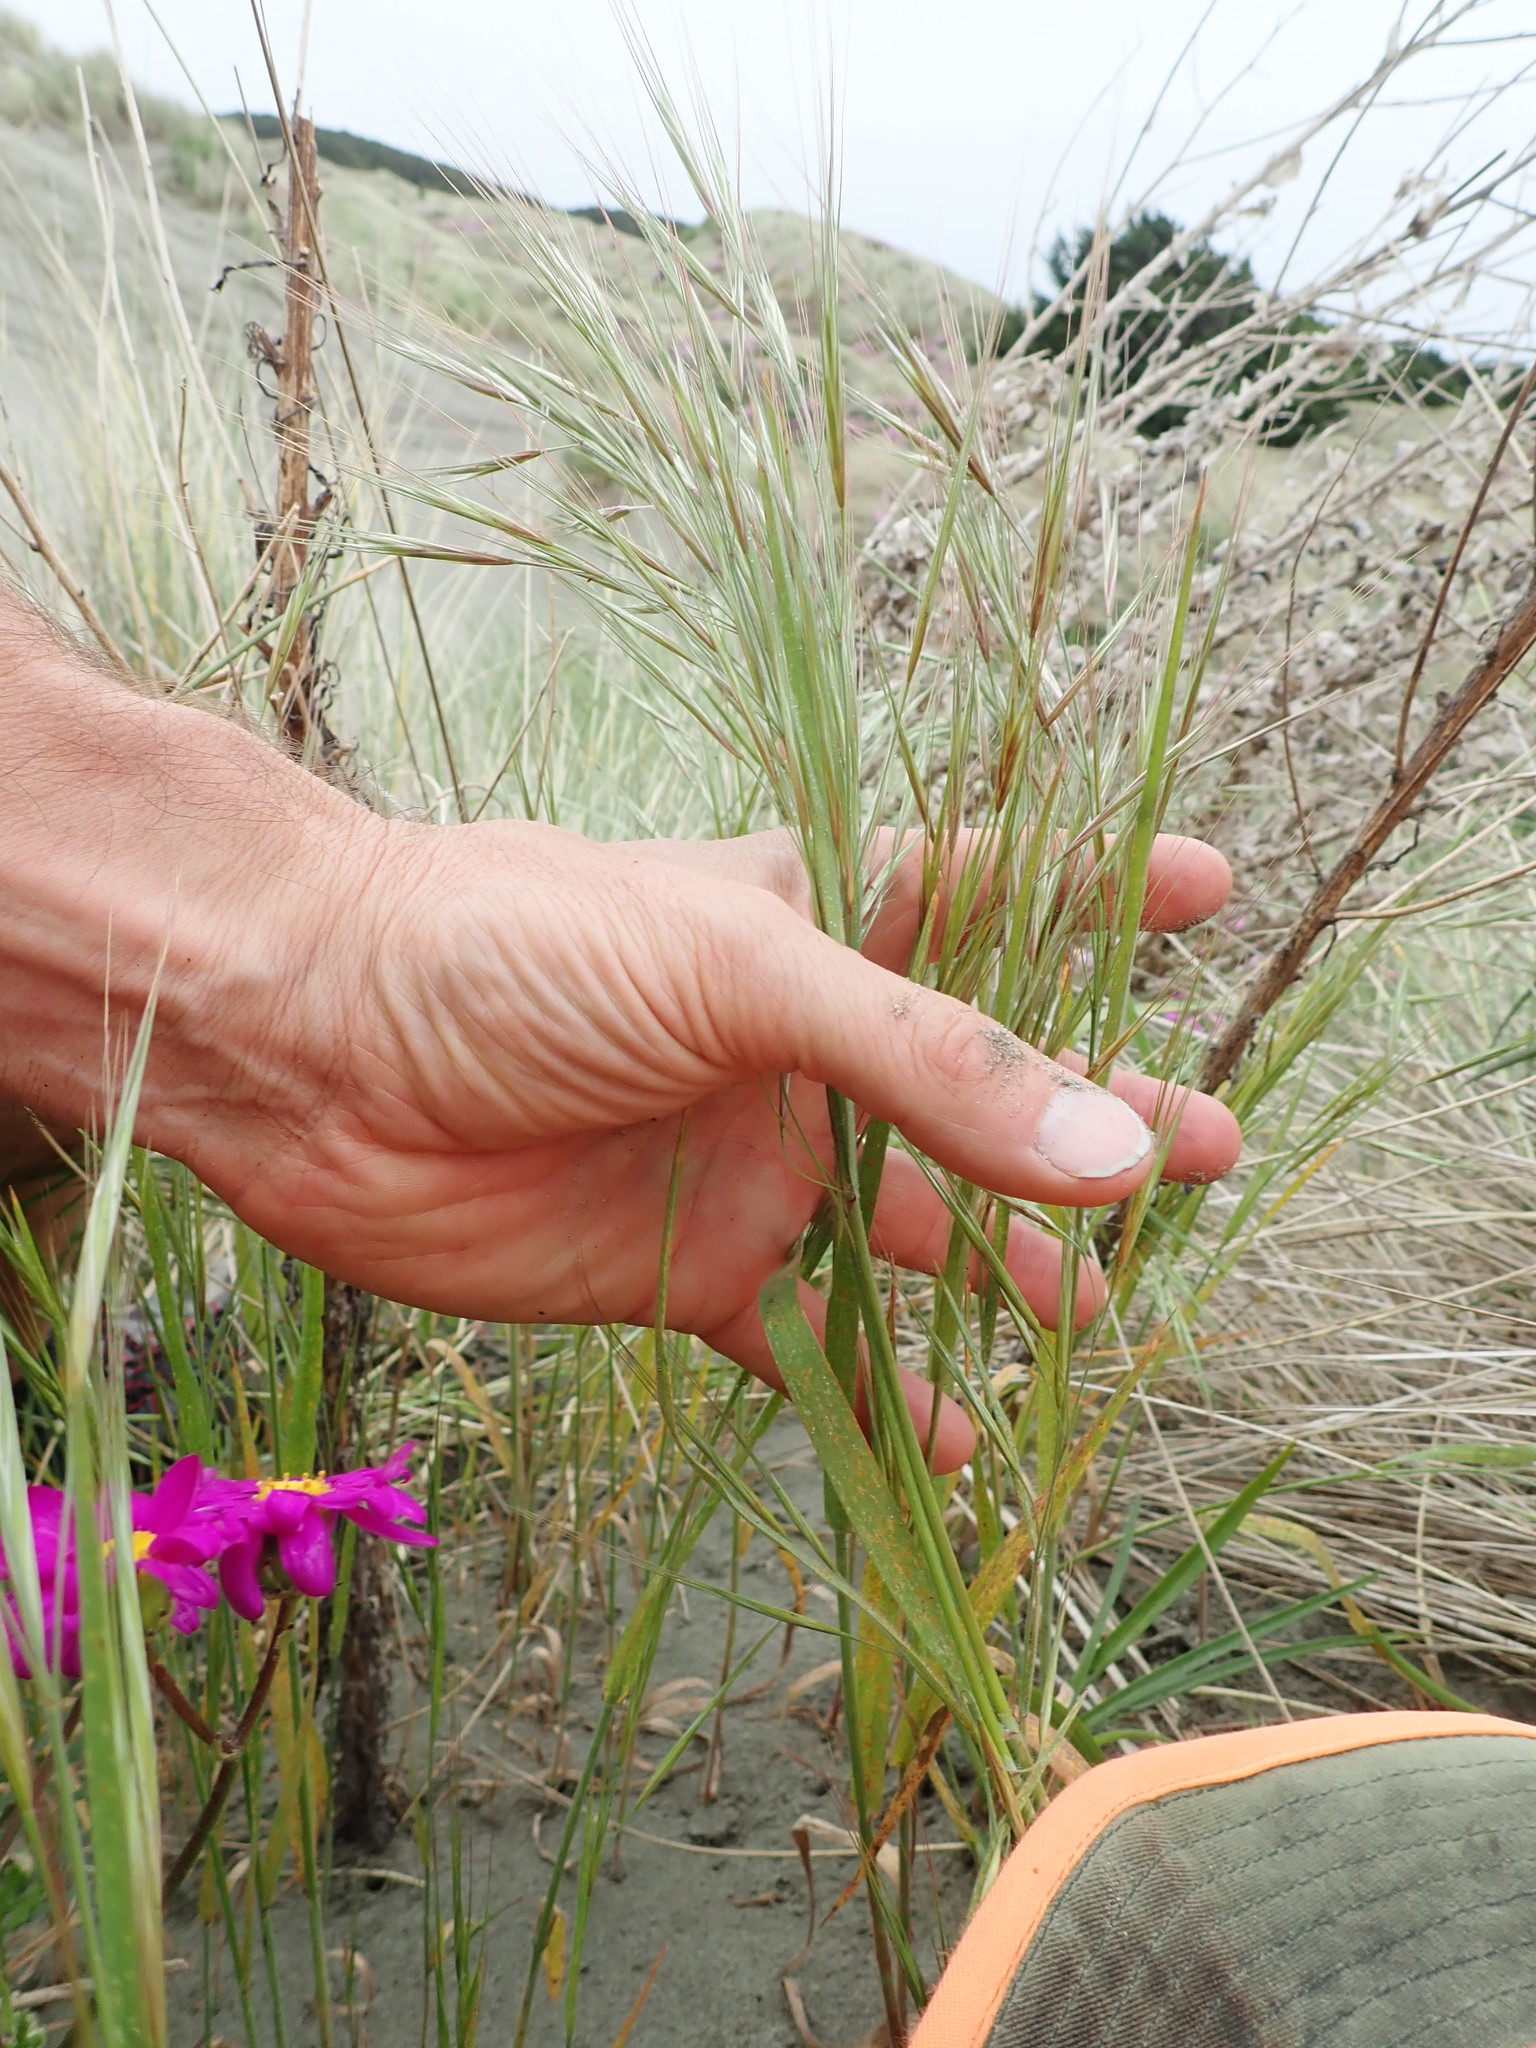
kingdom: Plantae
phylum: Tracheophyta
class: Liliopsida
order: Poales
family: Poaceae
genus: Bromus
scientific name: Bromus diandrus
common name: Ripgut brome
